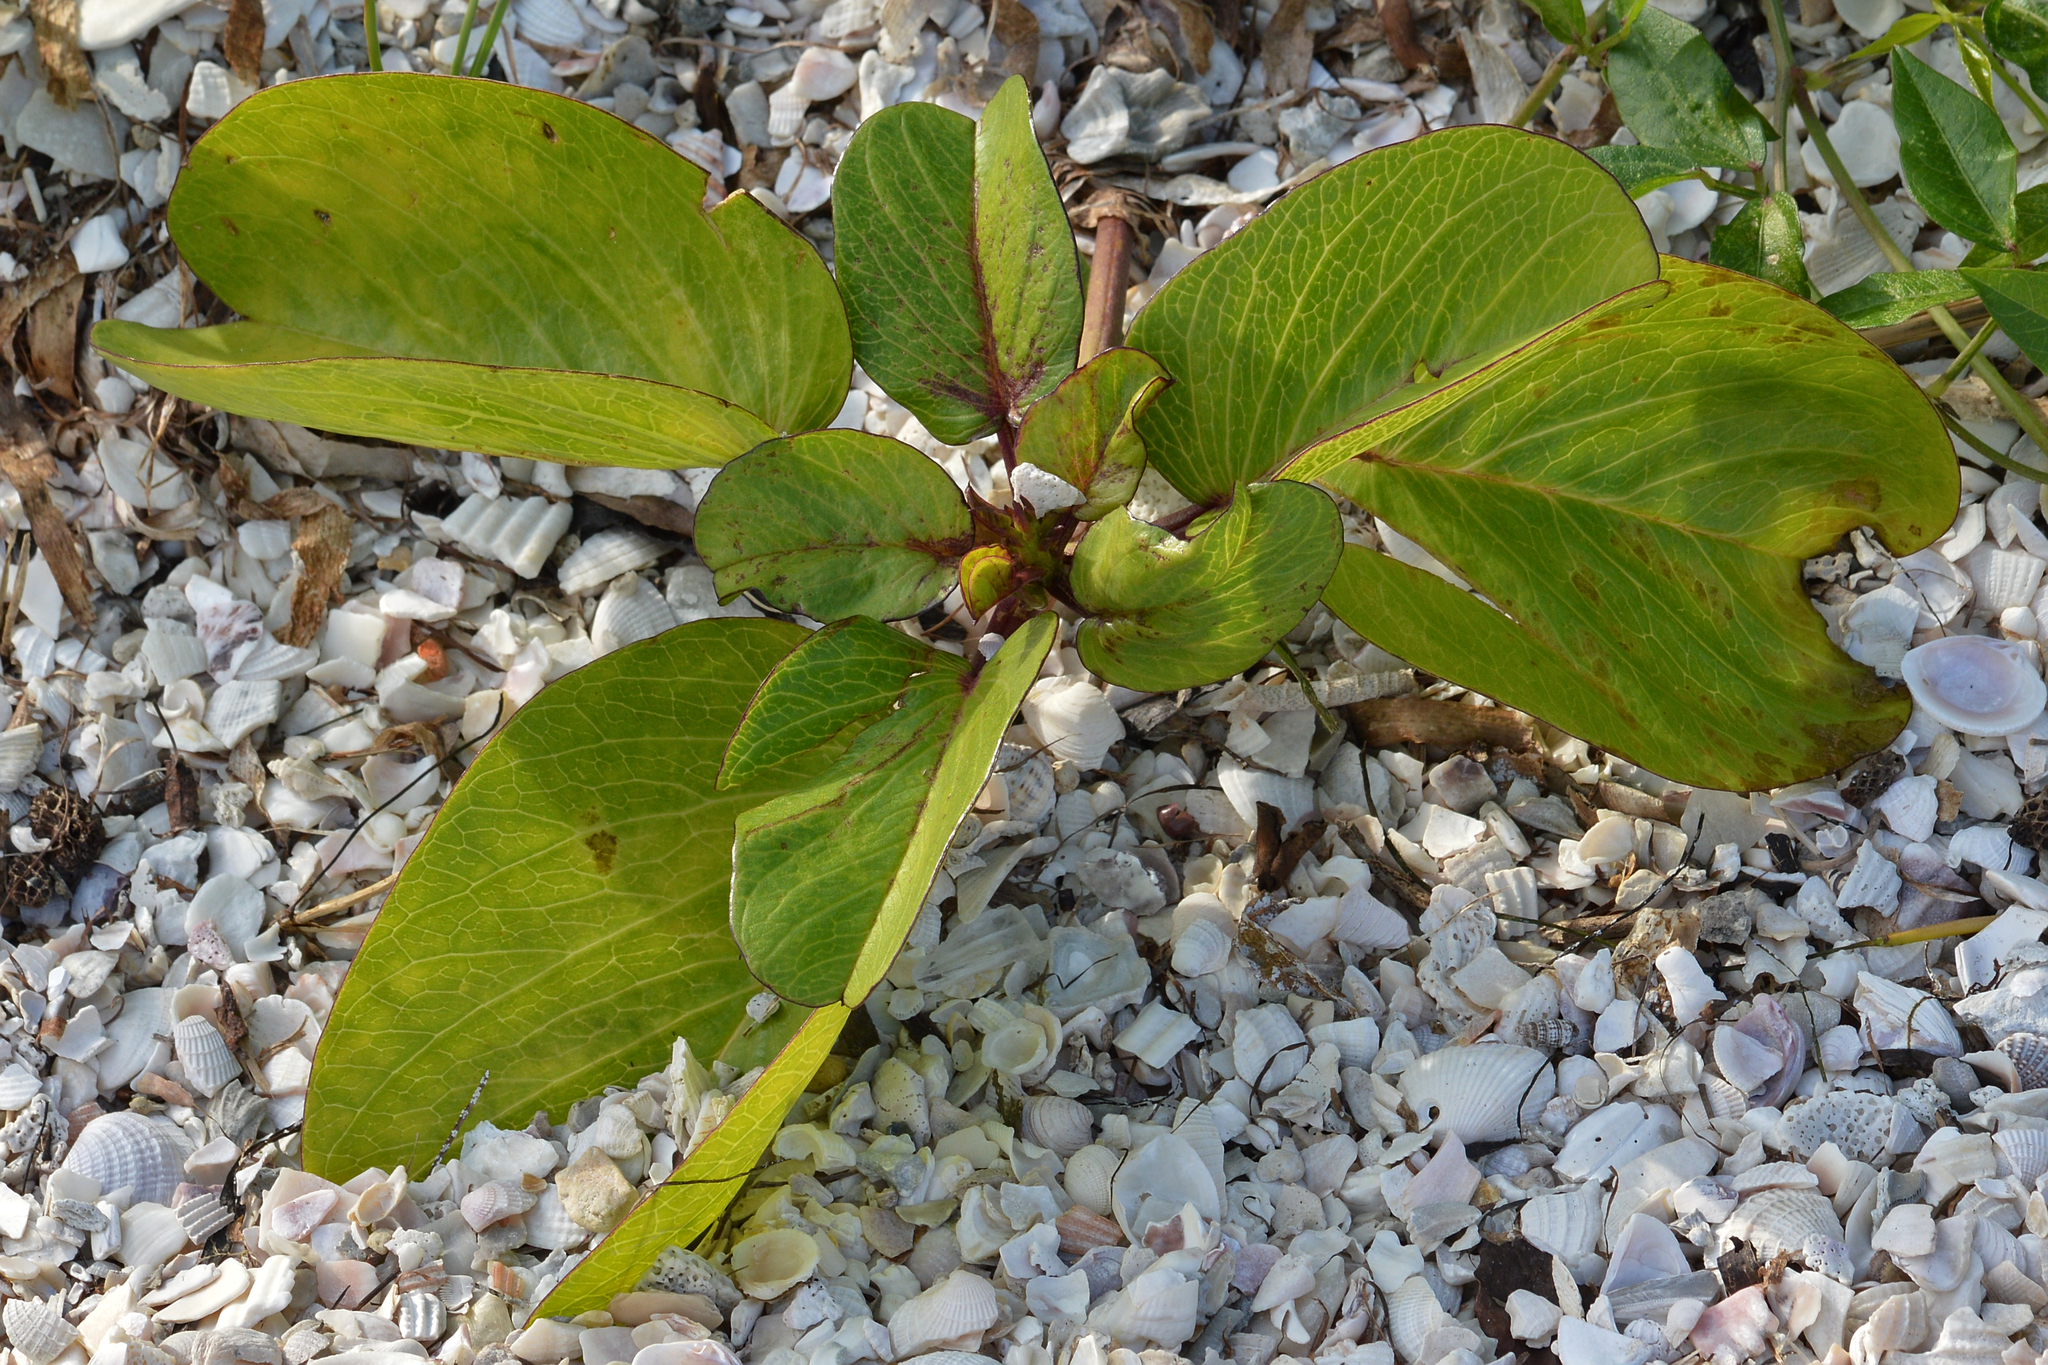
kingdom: Plantae
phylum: Tracheophyta
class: Magnoliopsida
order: Solanales
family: Convolvulaceae
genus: Ipomoea
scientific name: Ipomoea pes-caprae
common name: Beach morning glory
